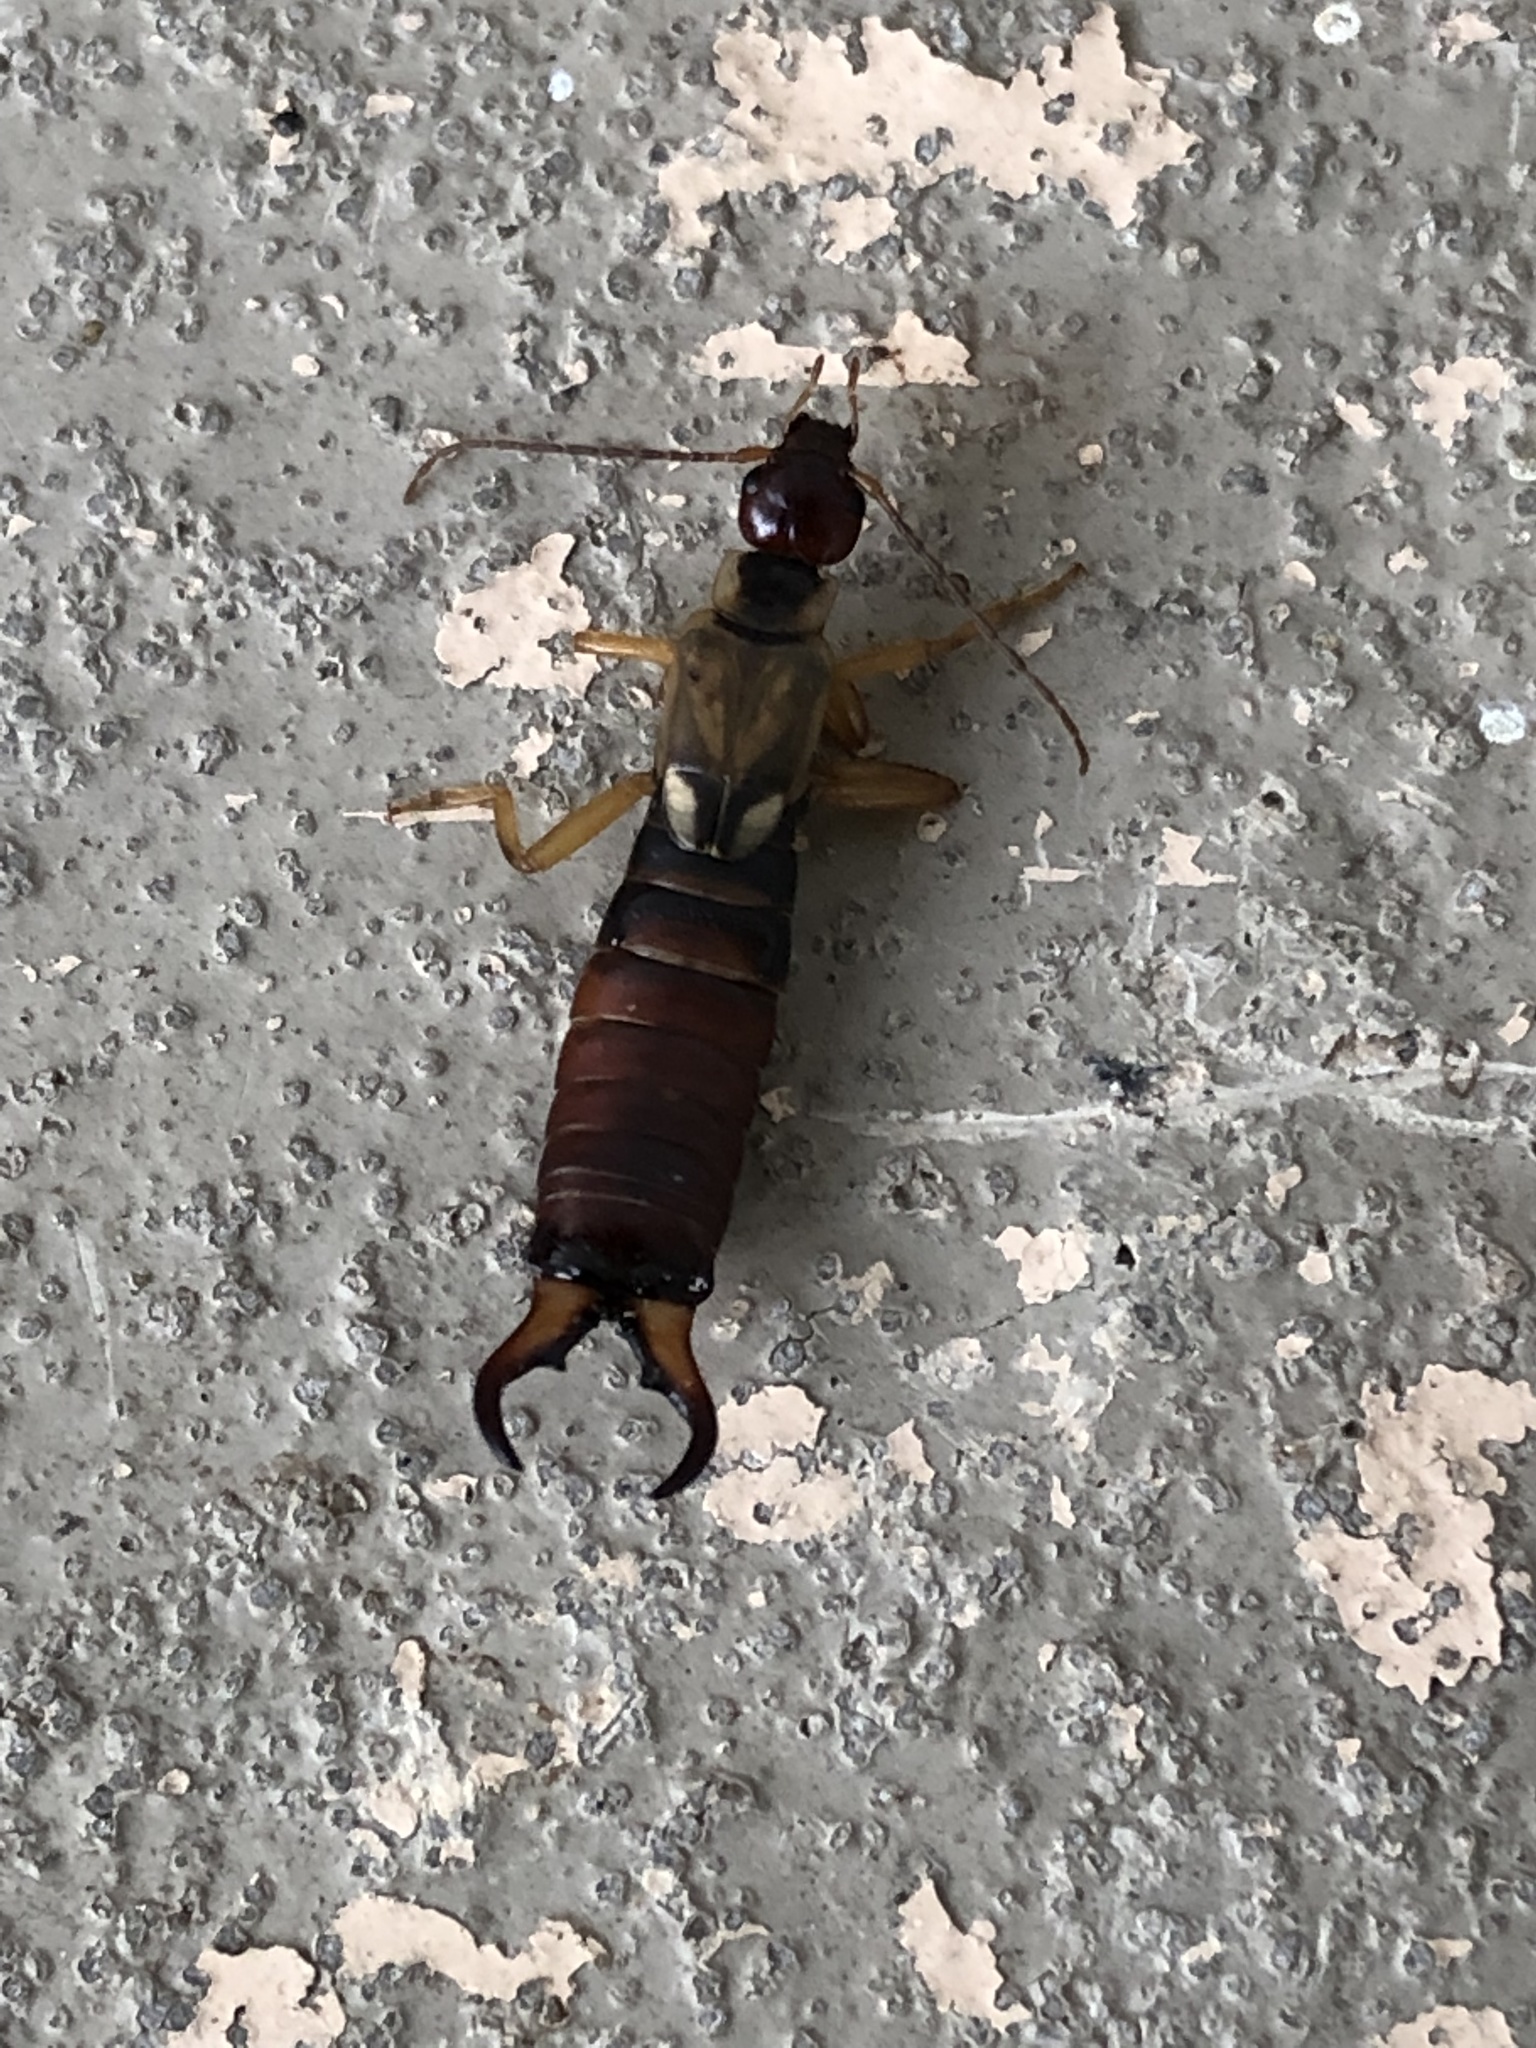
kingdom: Animalia
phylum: Arthropoda
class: Insecta
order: Dermaptera
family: Forficulidae
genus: Forficula
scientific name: Forficula
